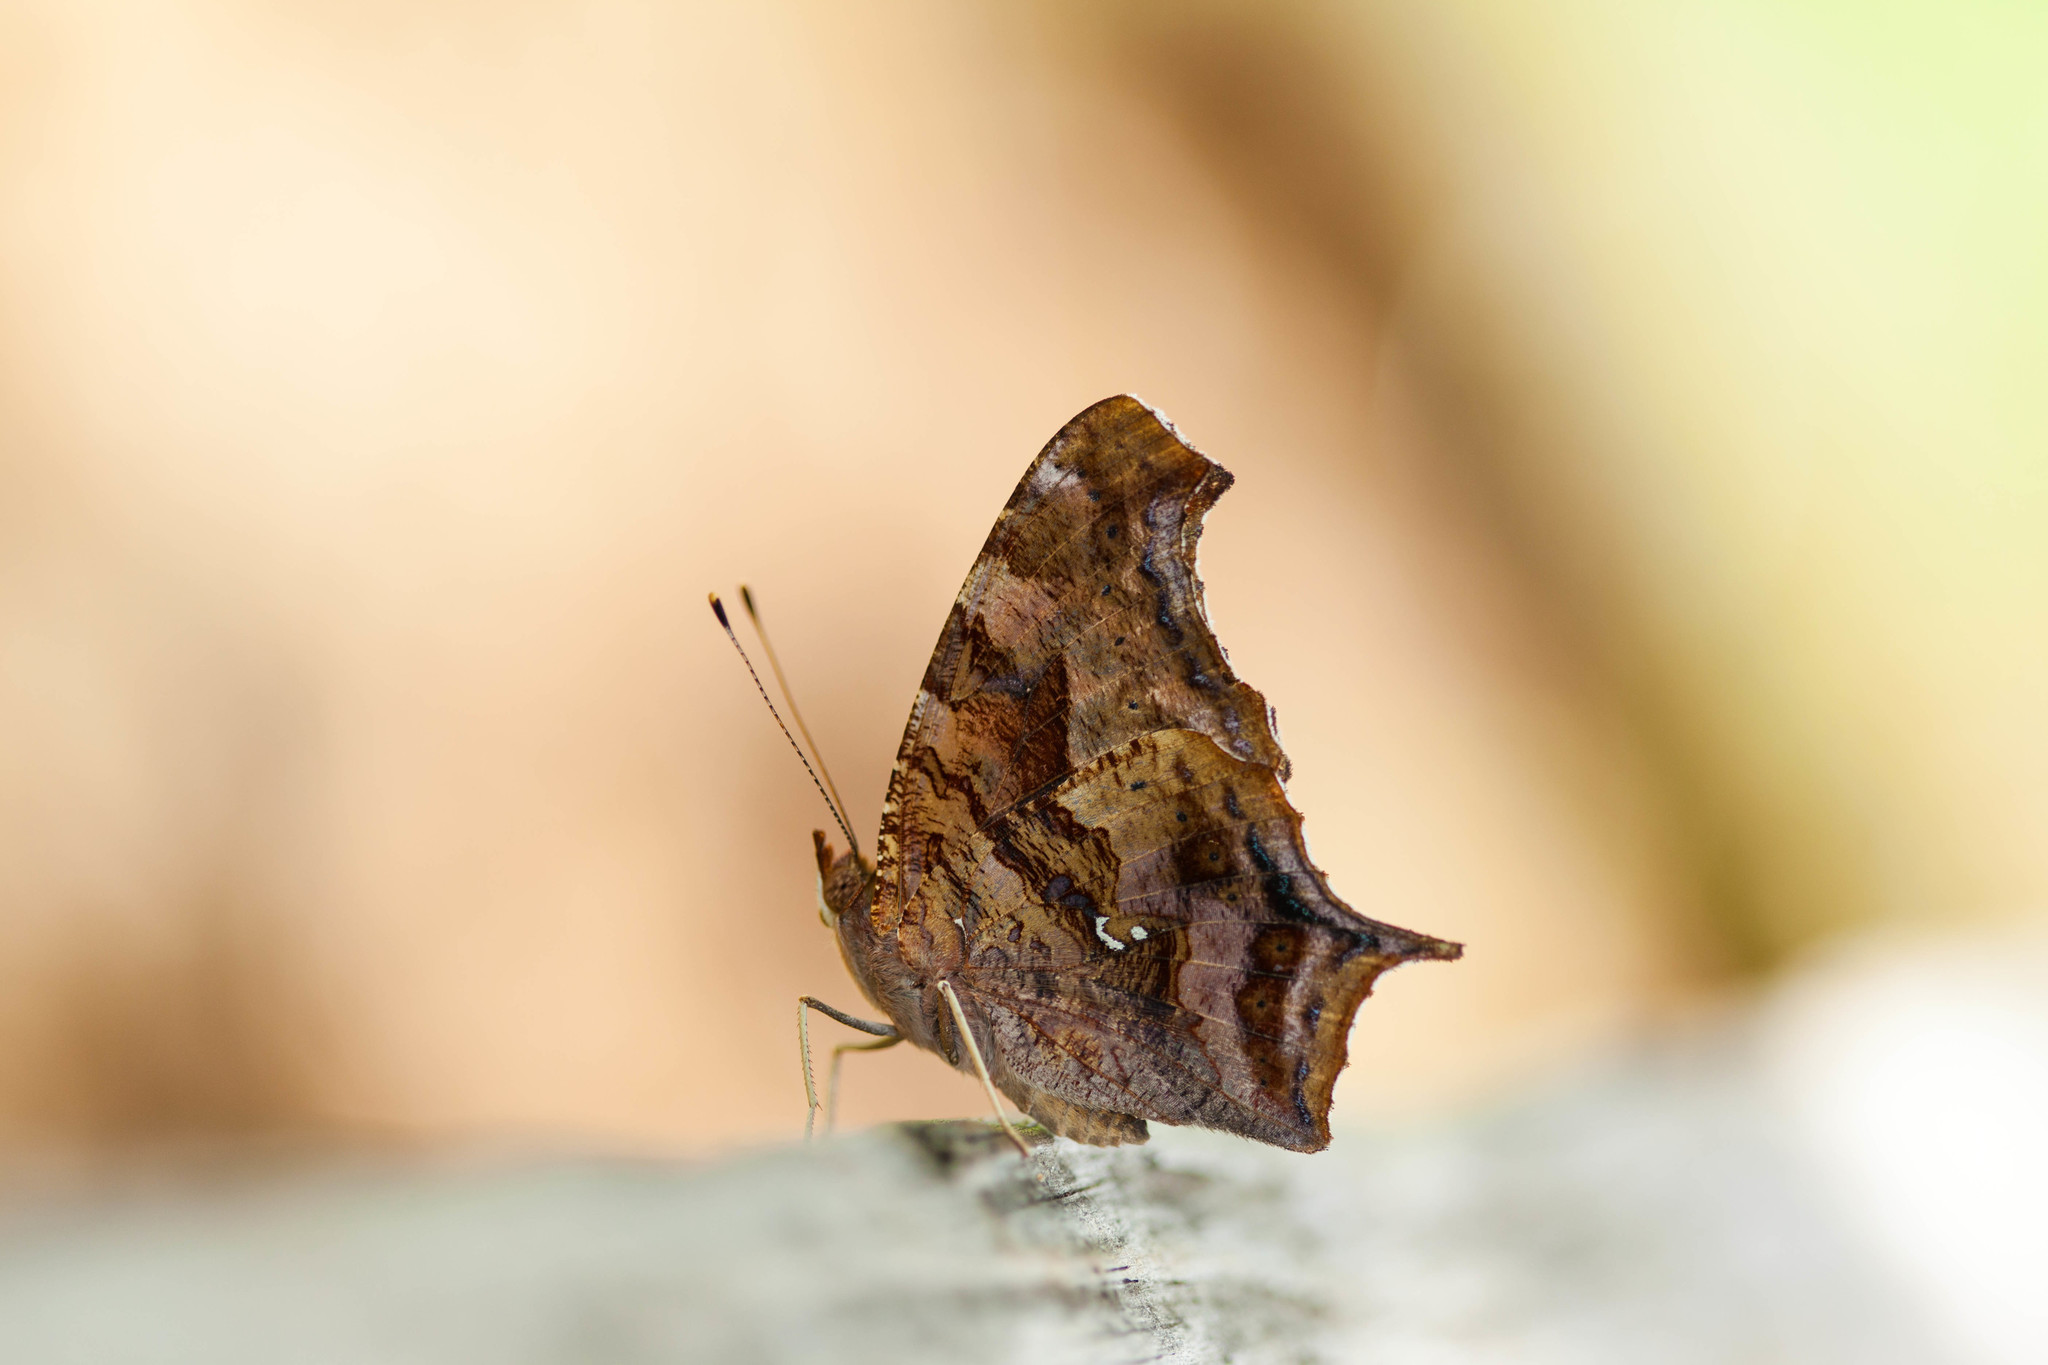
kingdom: Animalia
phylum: Arthropoda
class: Insecta
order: Lepidoptera
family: Nymphalidae
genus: Polygonia
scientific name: Polygonia interrogationis
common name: Question mark
